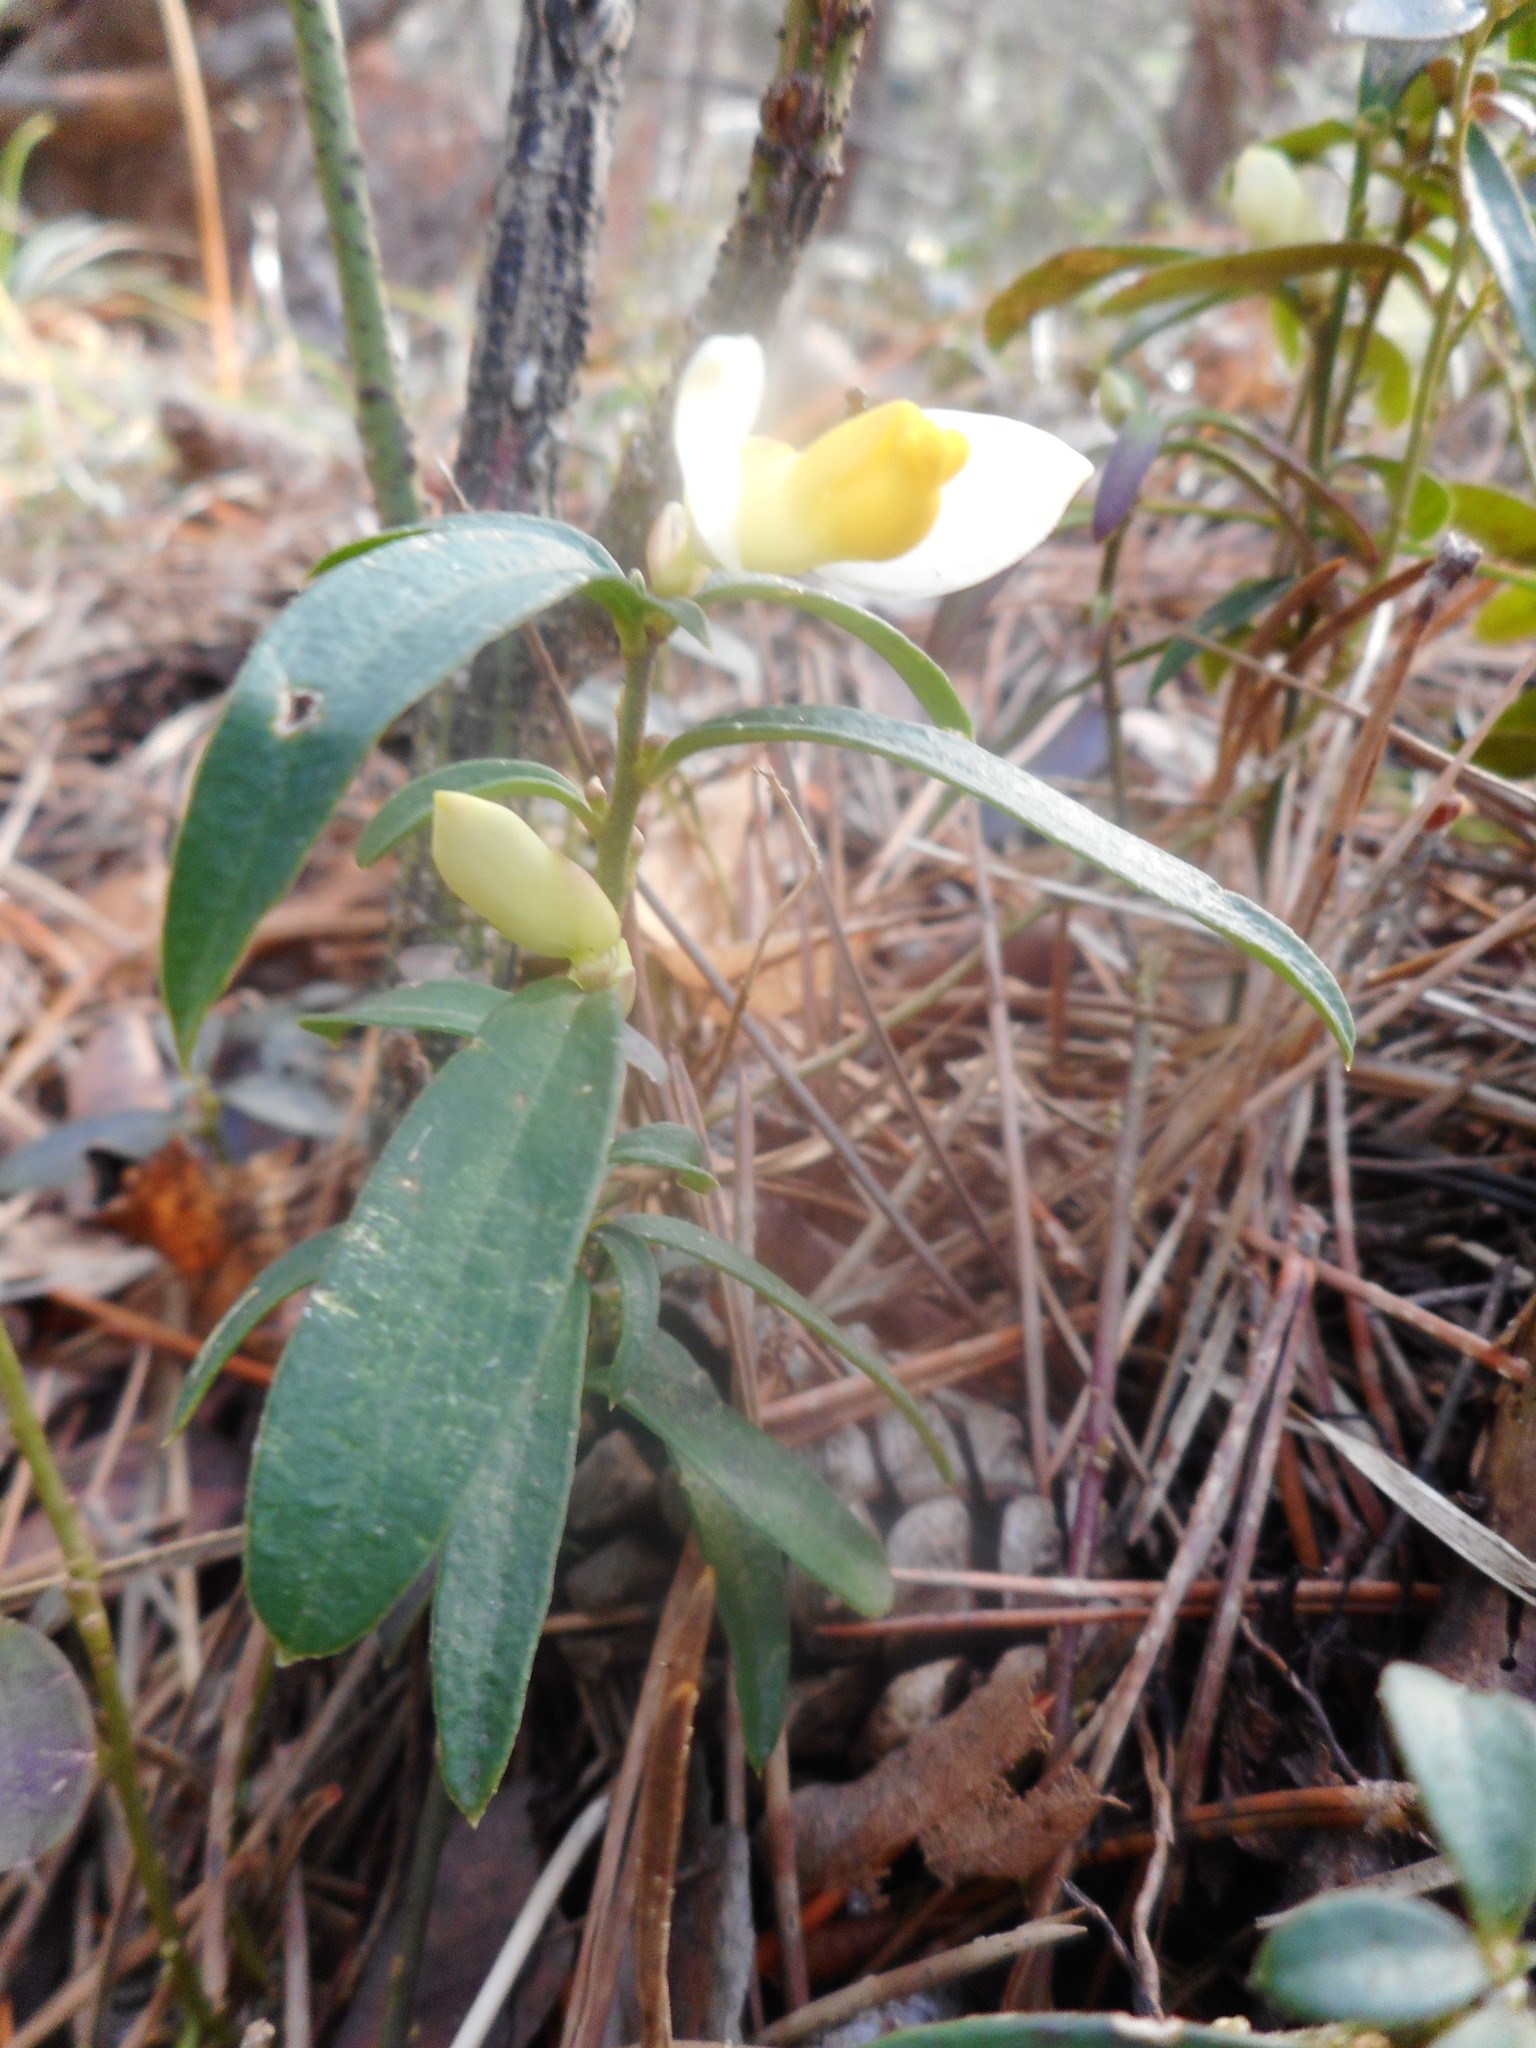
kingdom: Plantae
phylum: Tracheophyta
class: Magnoliopsida
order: Fabales
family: Polygalaceae
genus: Polygaloides
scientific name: Polygaloides chamaebuxus
